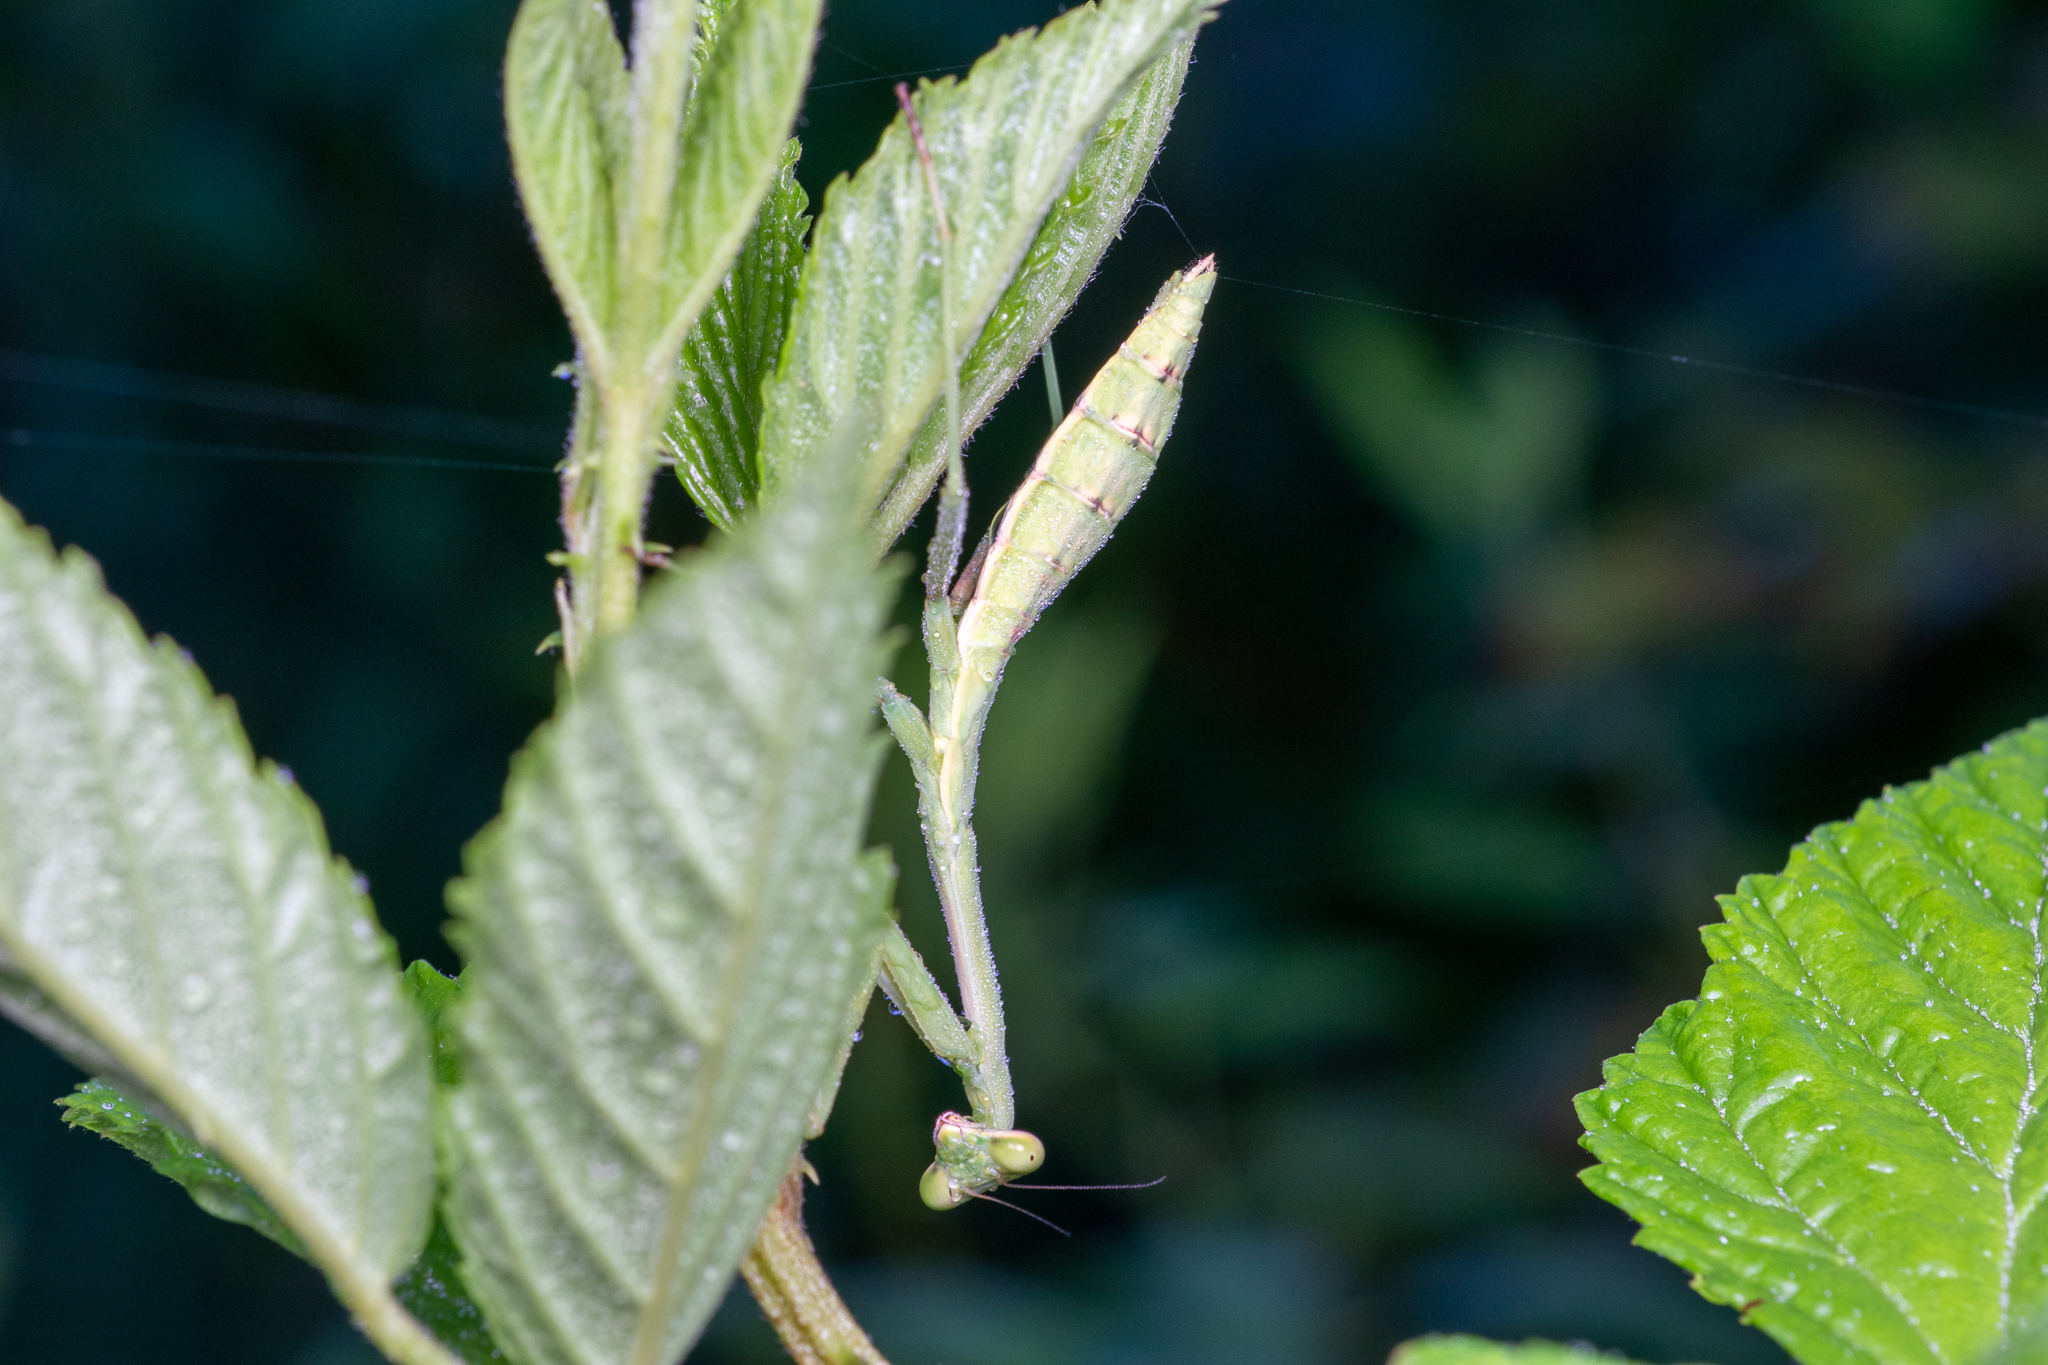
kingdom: Animalia
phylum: Arthropoda
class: Insecta
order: Mantodea
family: Mantidae
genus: Stagmomantis
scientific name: Stagmomantis carolina
